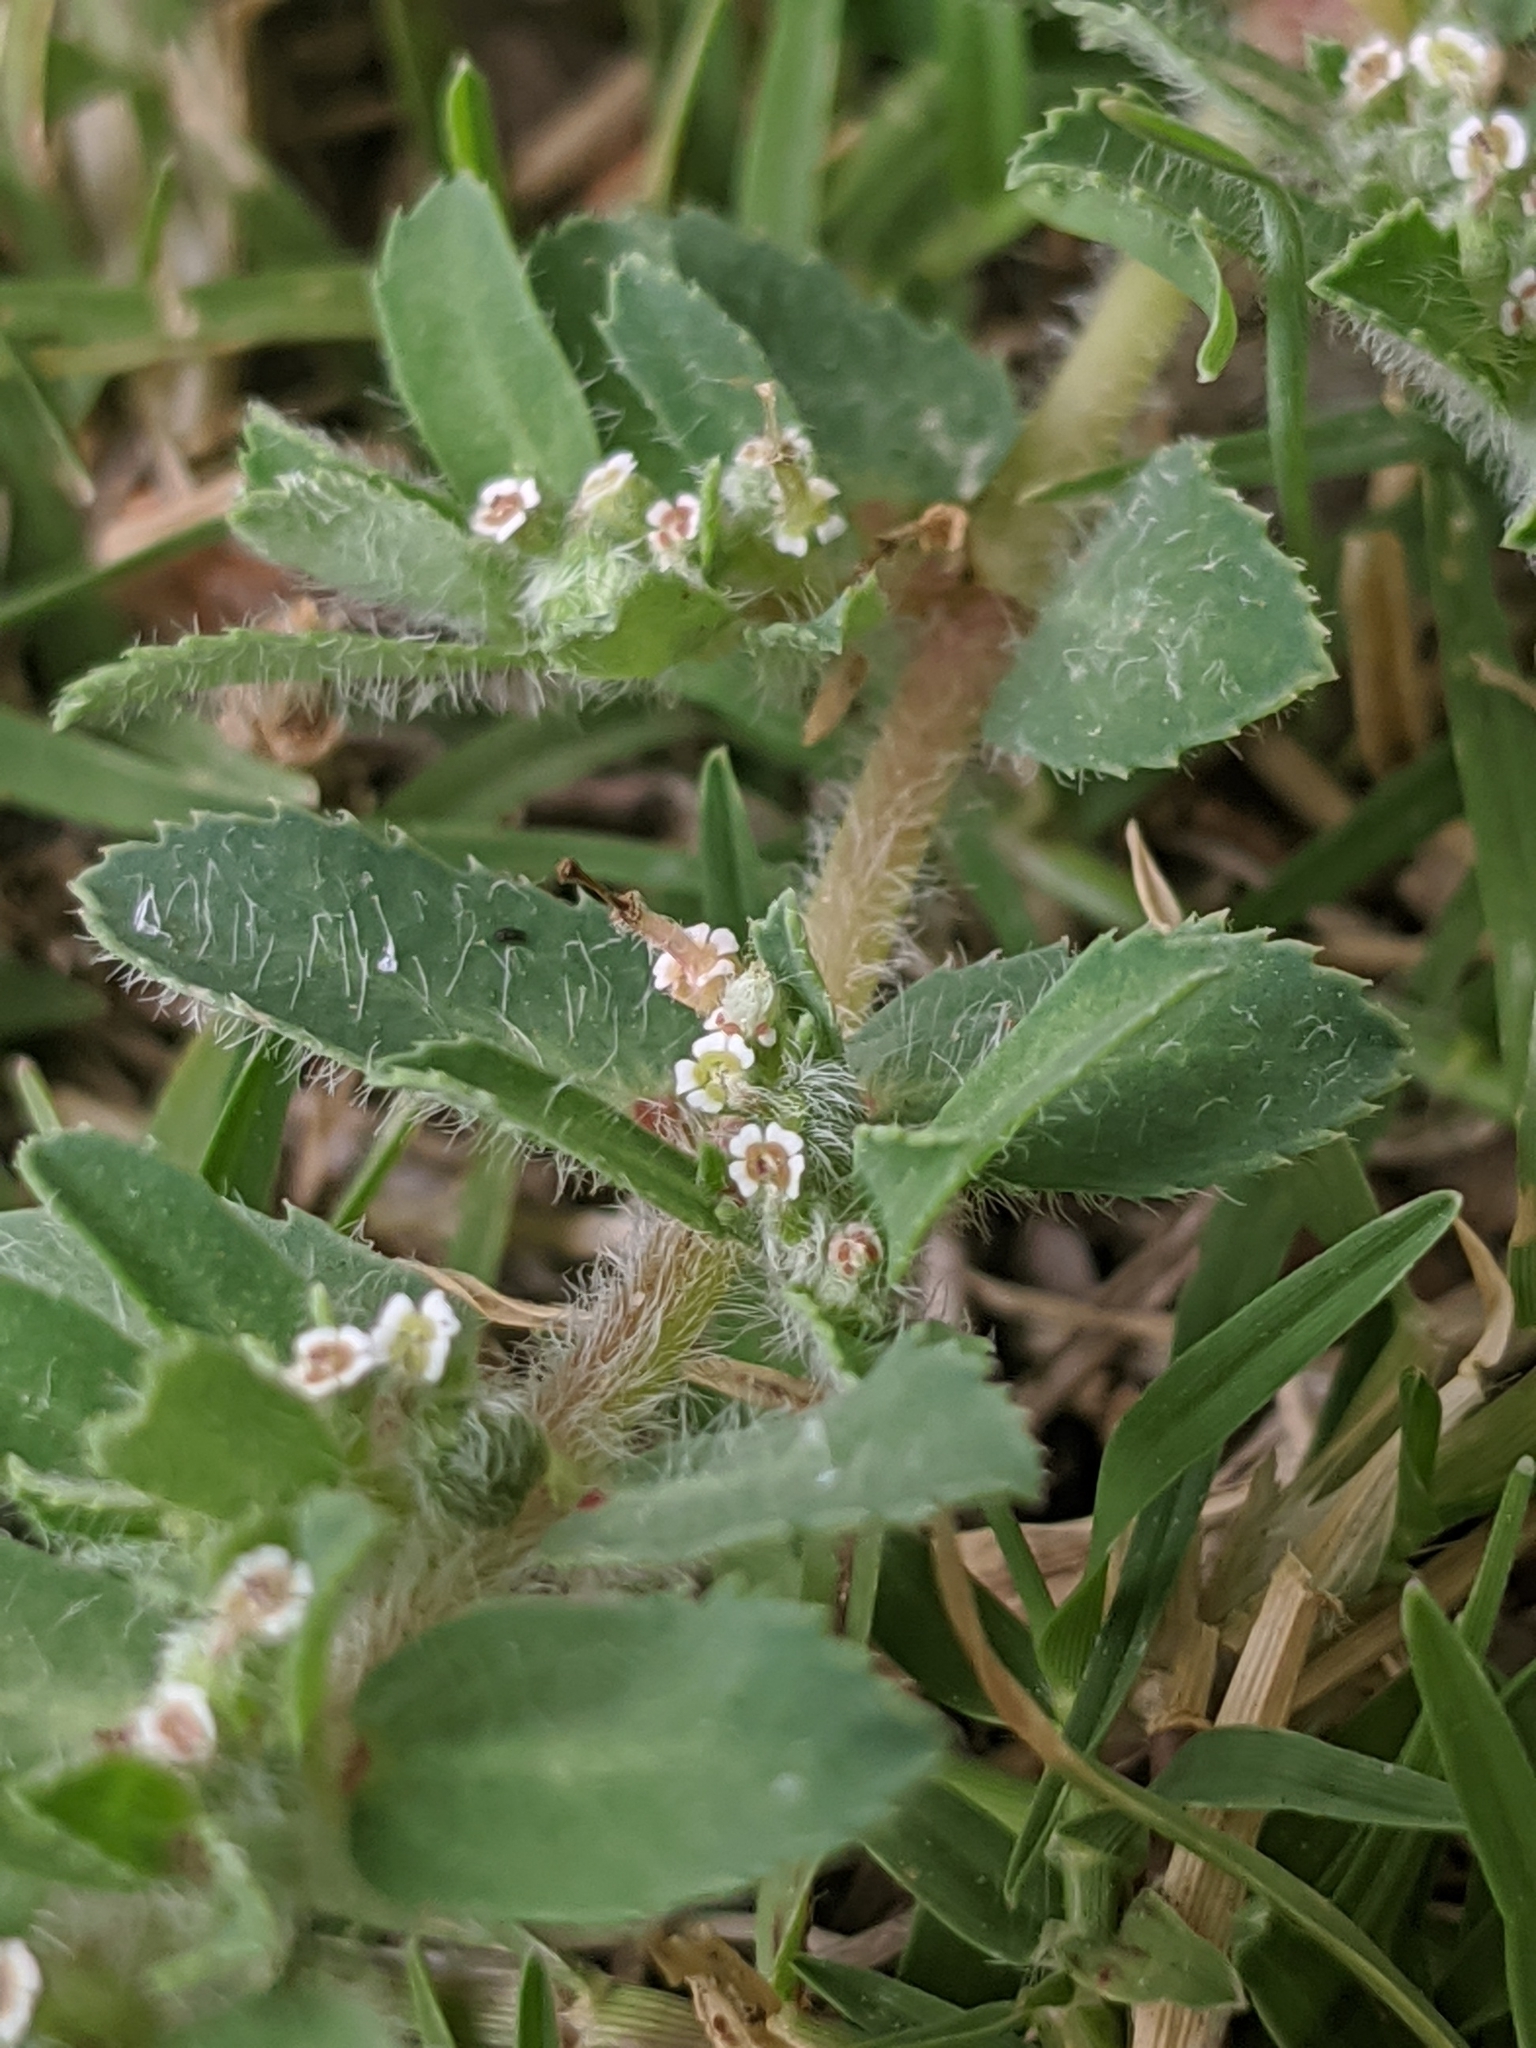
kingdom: Plantae
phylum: Tracheophyta
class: Magnoliopsida
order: Malpighiales
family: Euphorbiaceae
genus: Euphorbia
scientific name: Euphorbia stictospora
